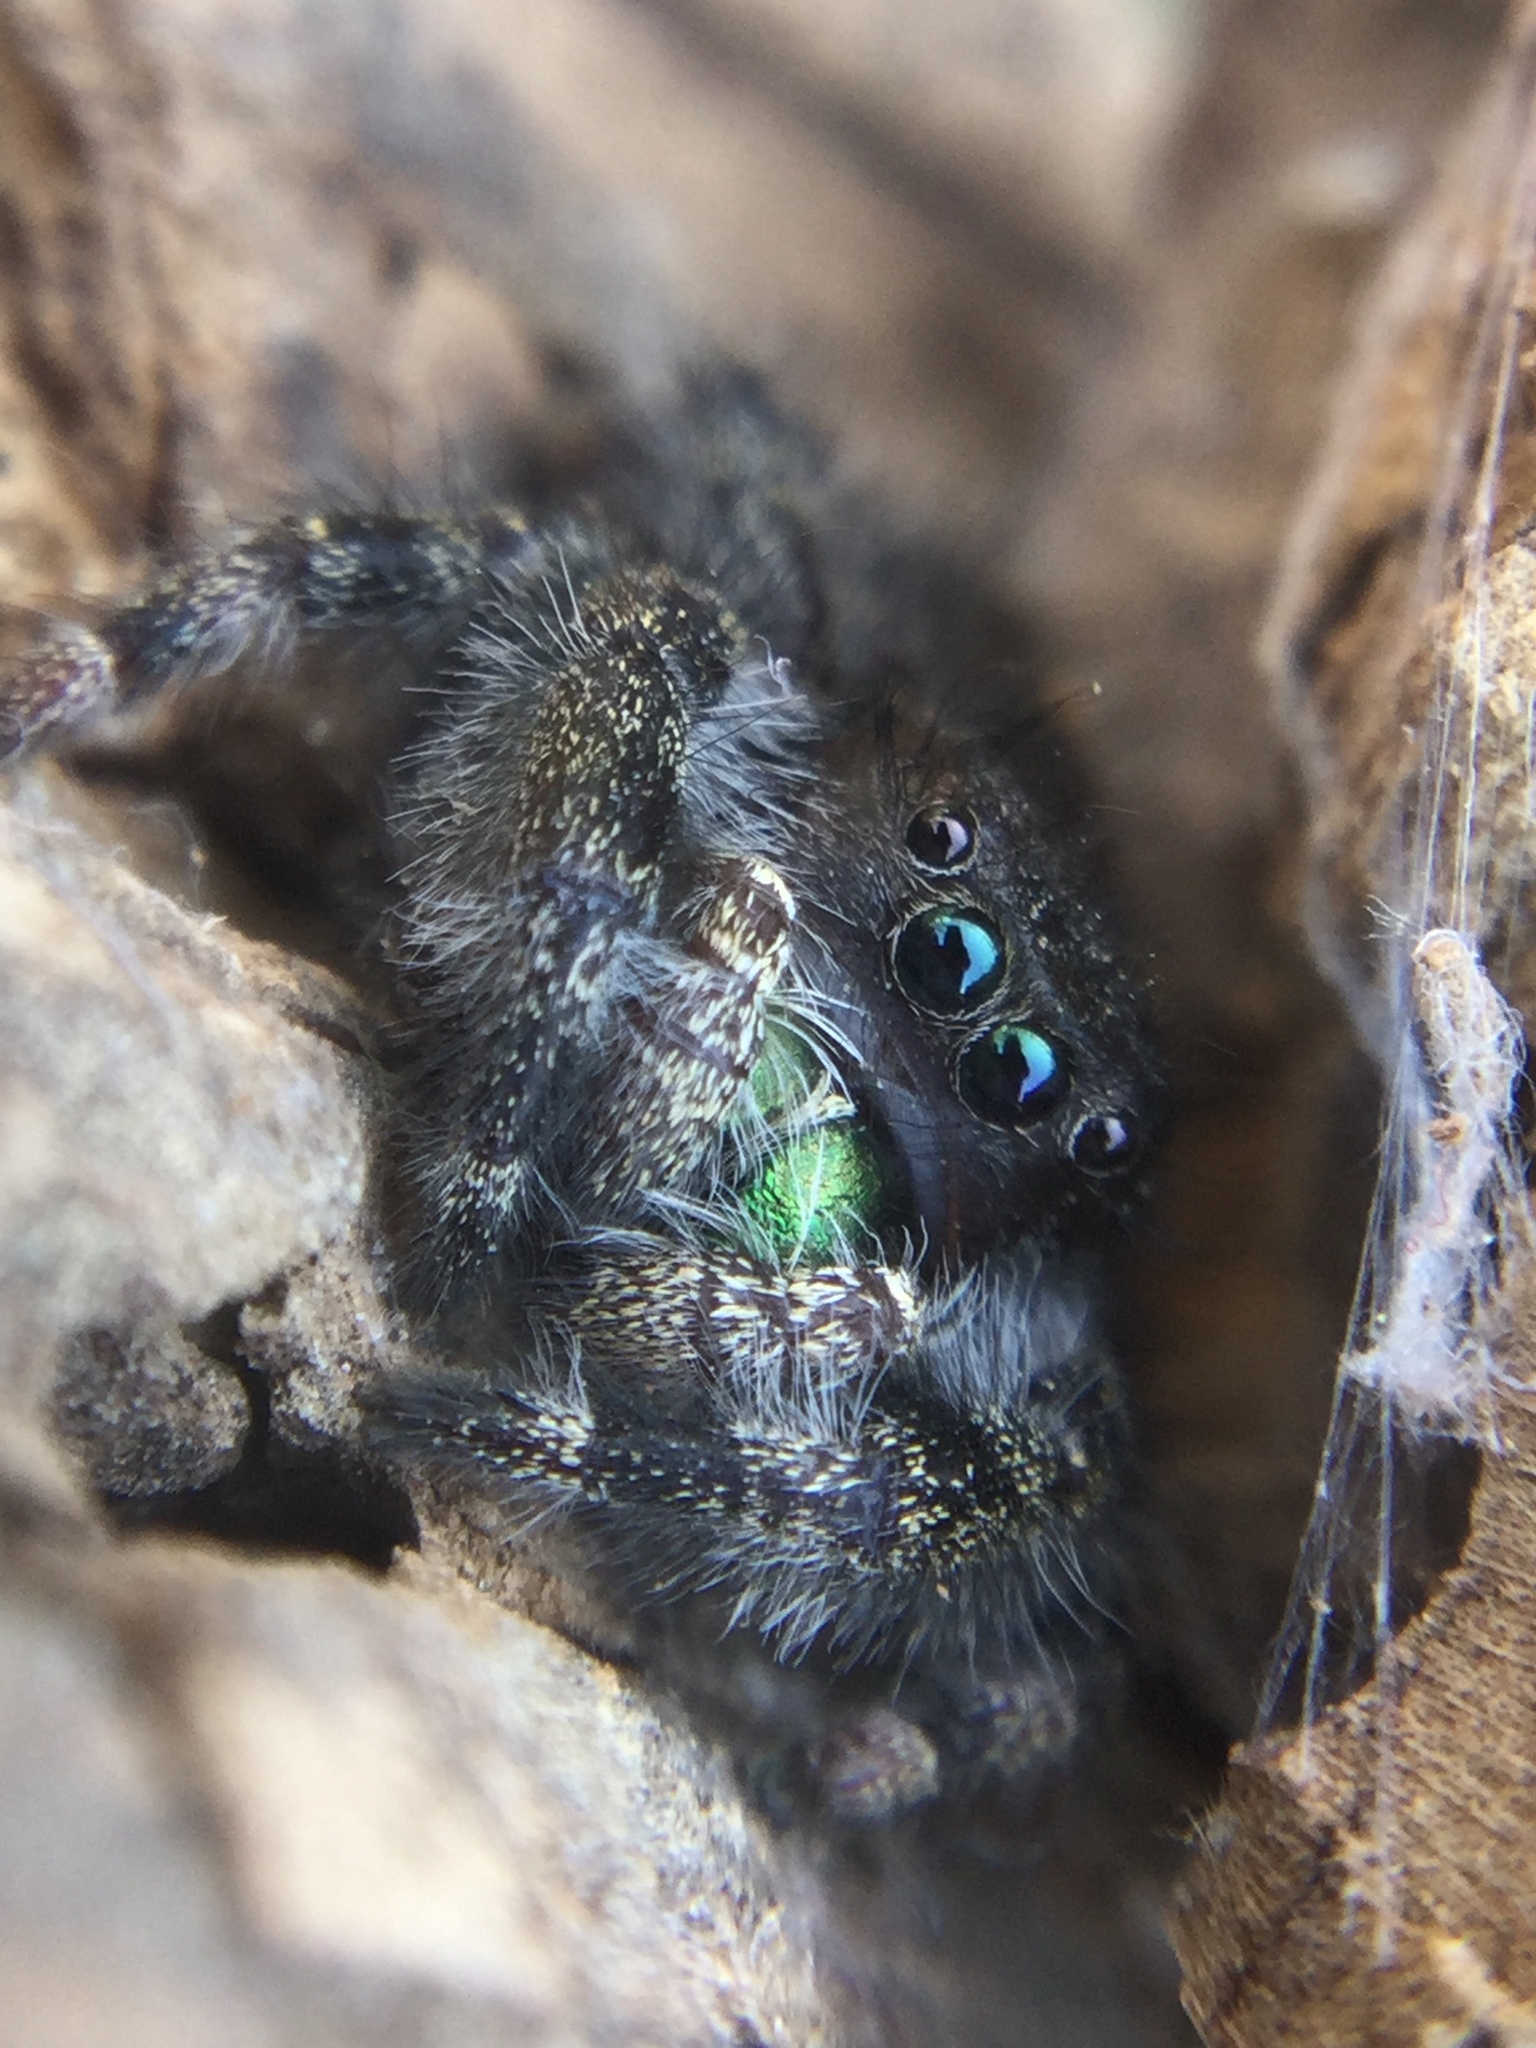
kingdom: Animalia
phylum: Arthropoda
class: Arachnida
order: Araneae
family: Salticidae
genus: Phidippus
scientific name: Phidippus audax
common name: Bold jumper
